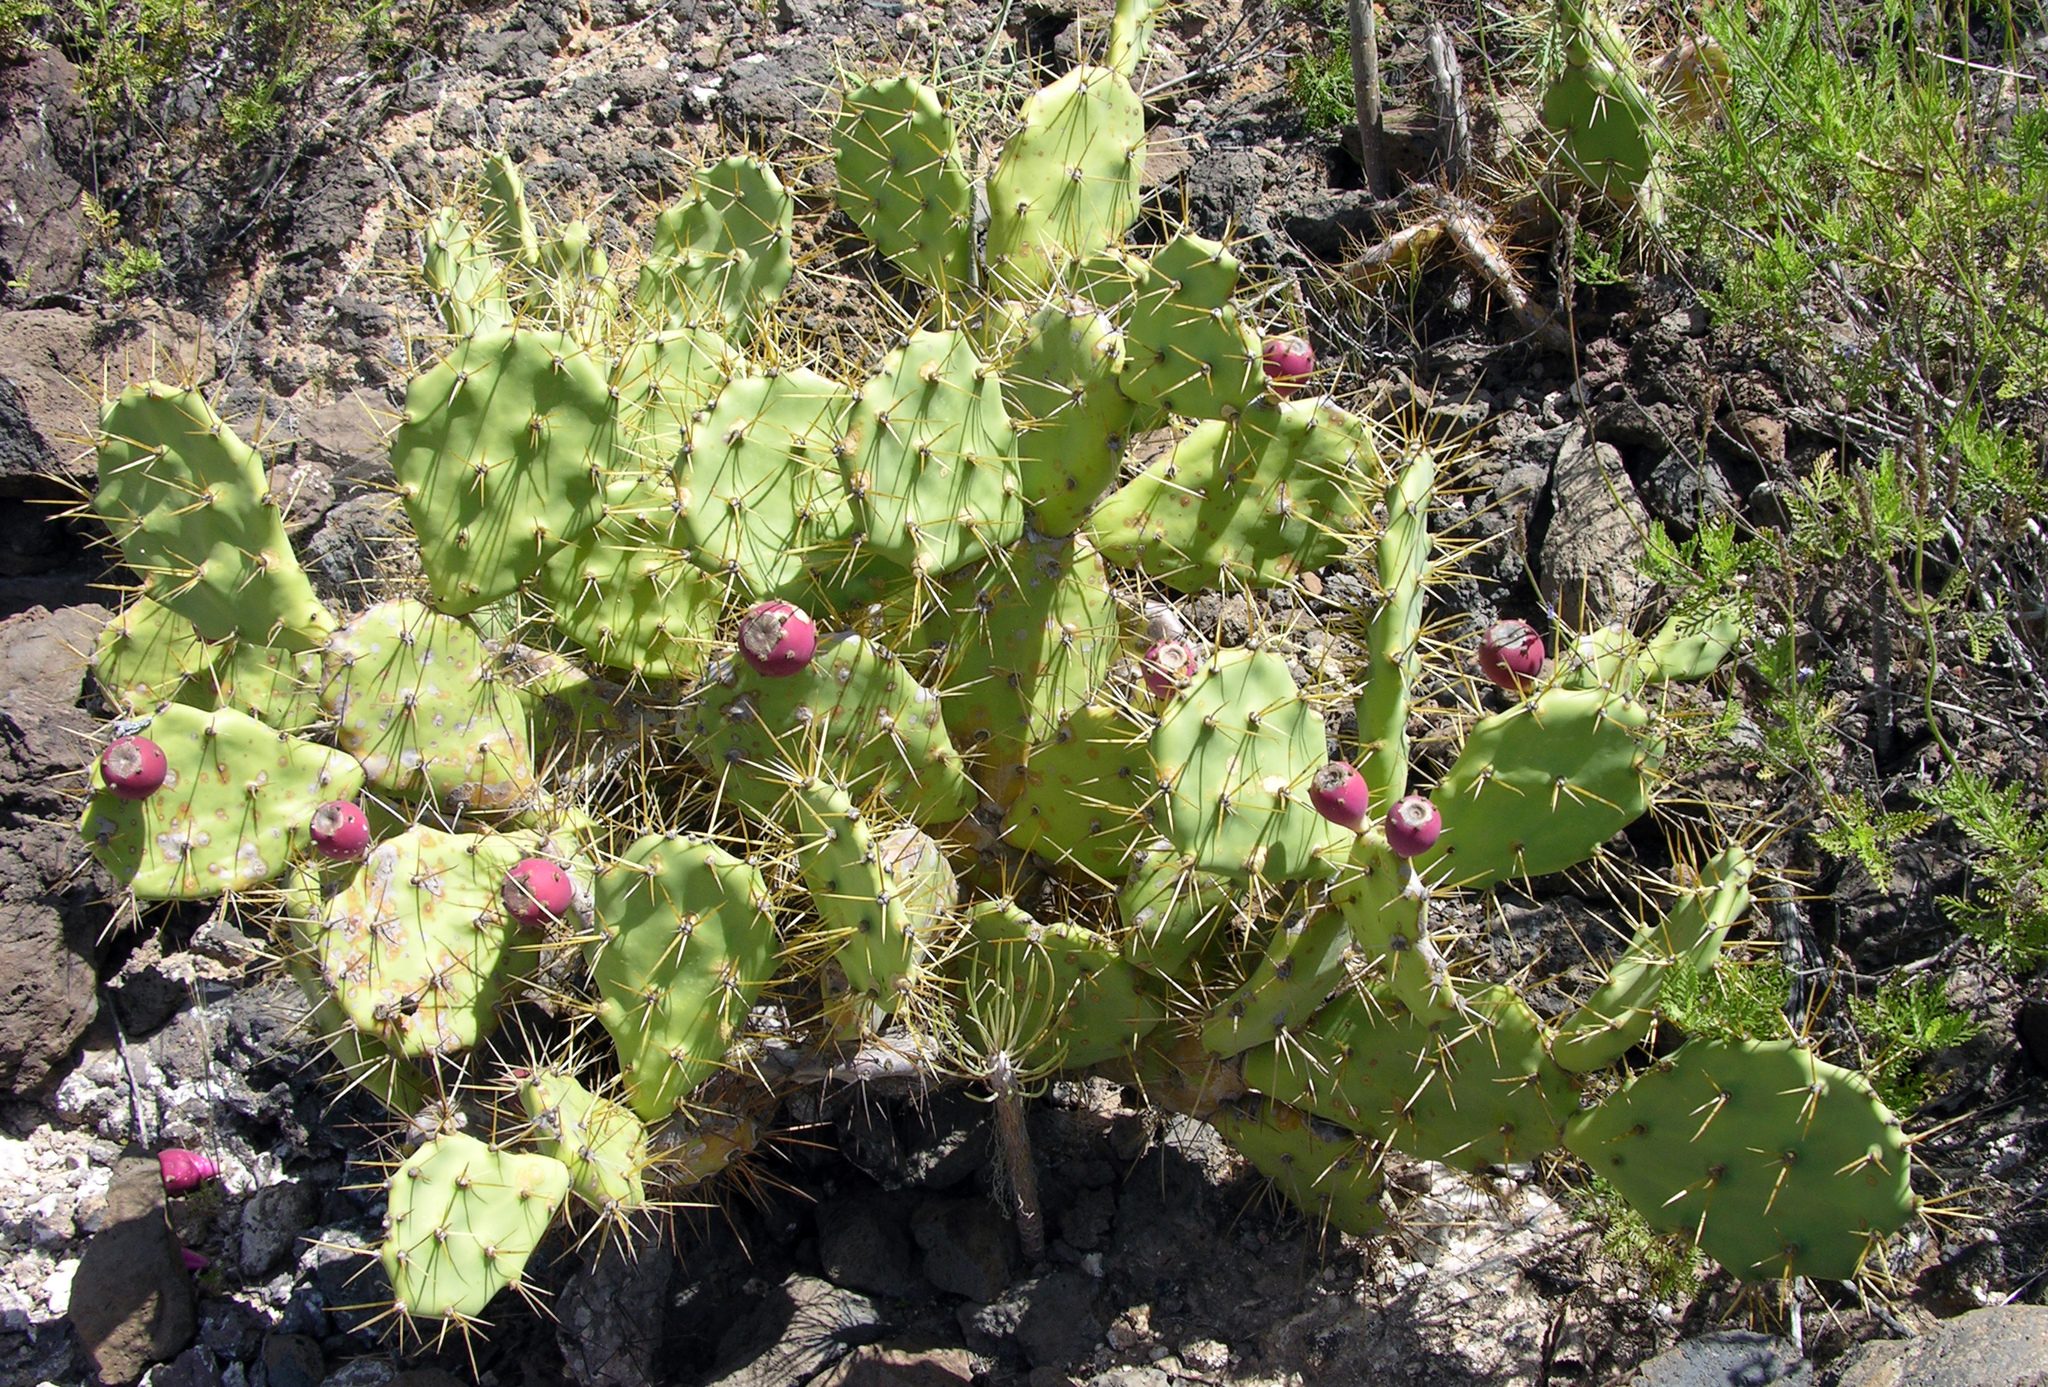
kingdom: Plantae
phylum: Tracheophyta
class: Magnoliopsida
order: Caryophyllales
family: Cactaceae
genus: Opuntia
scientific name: Opuntia stricta
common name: Erect pricklypear
